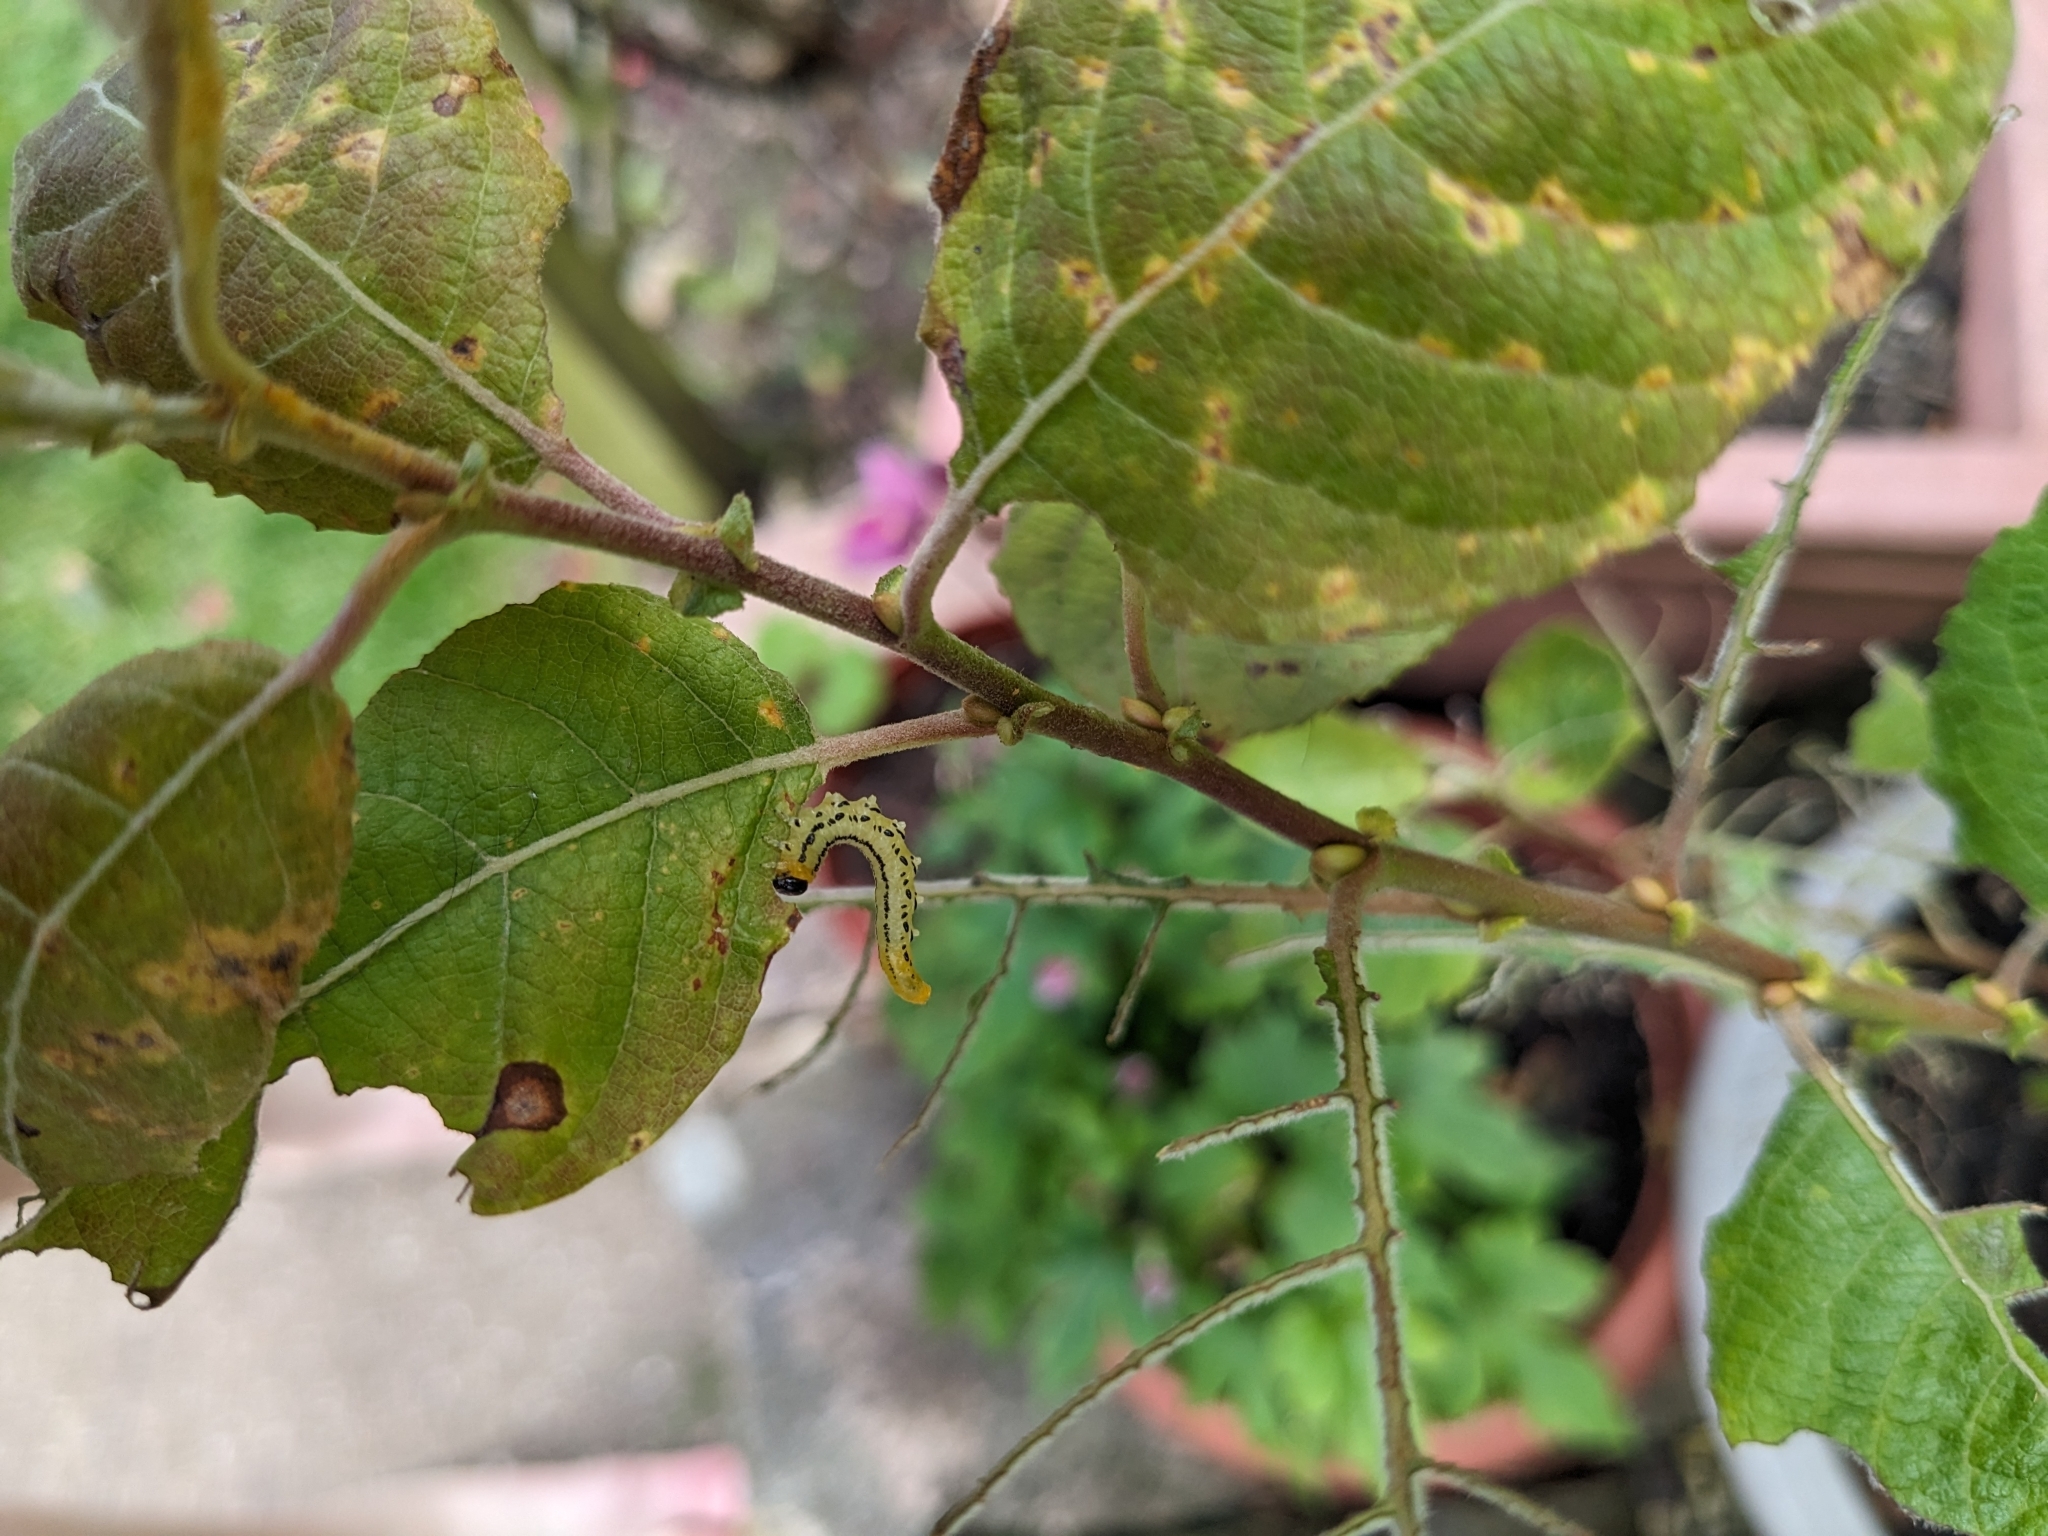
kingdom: Animalia
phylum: Arthropoda
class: Insecta
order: Hymenoptera
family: Tenthredinidae
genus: Nematus
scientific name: Nematus pavidus
